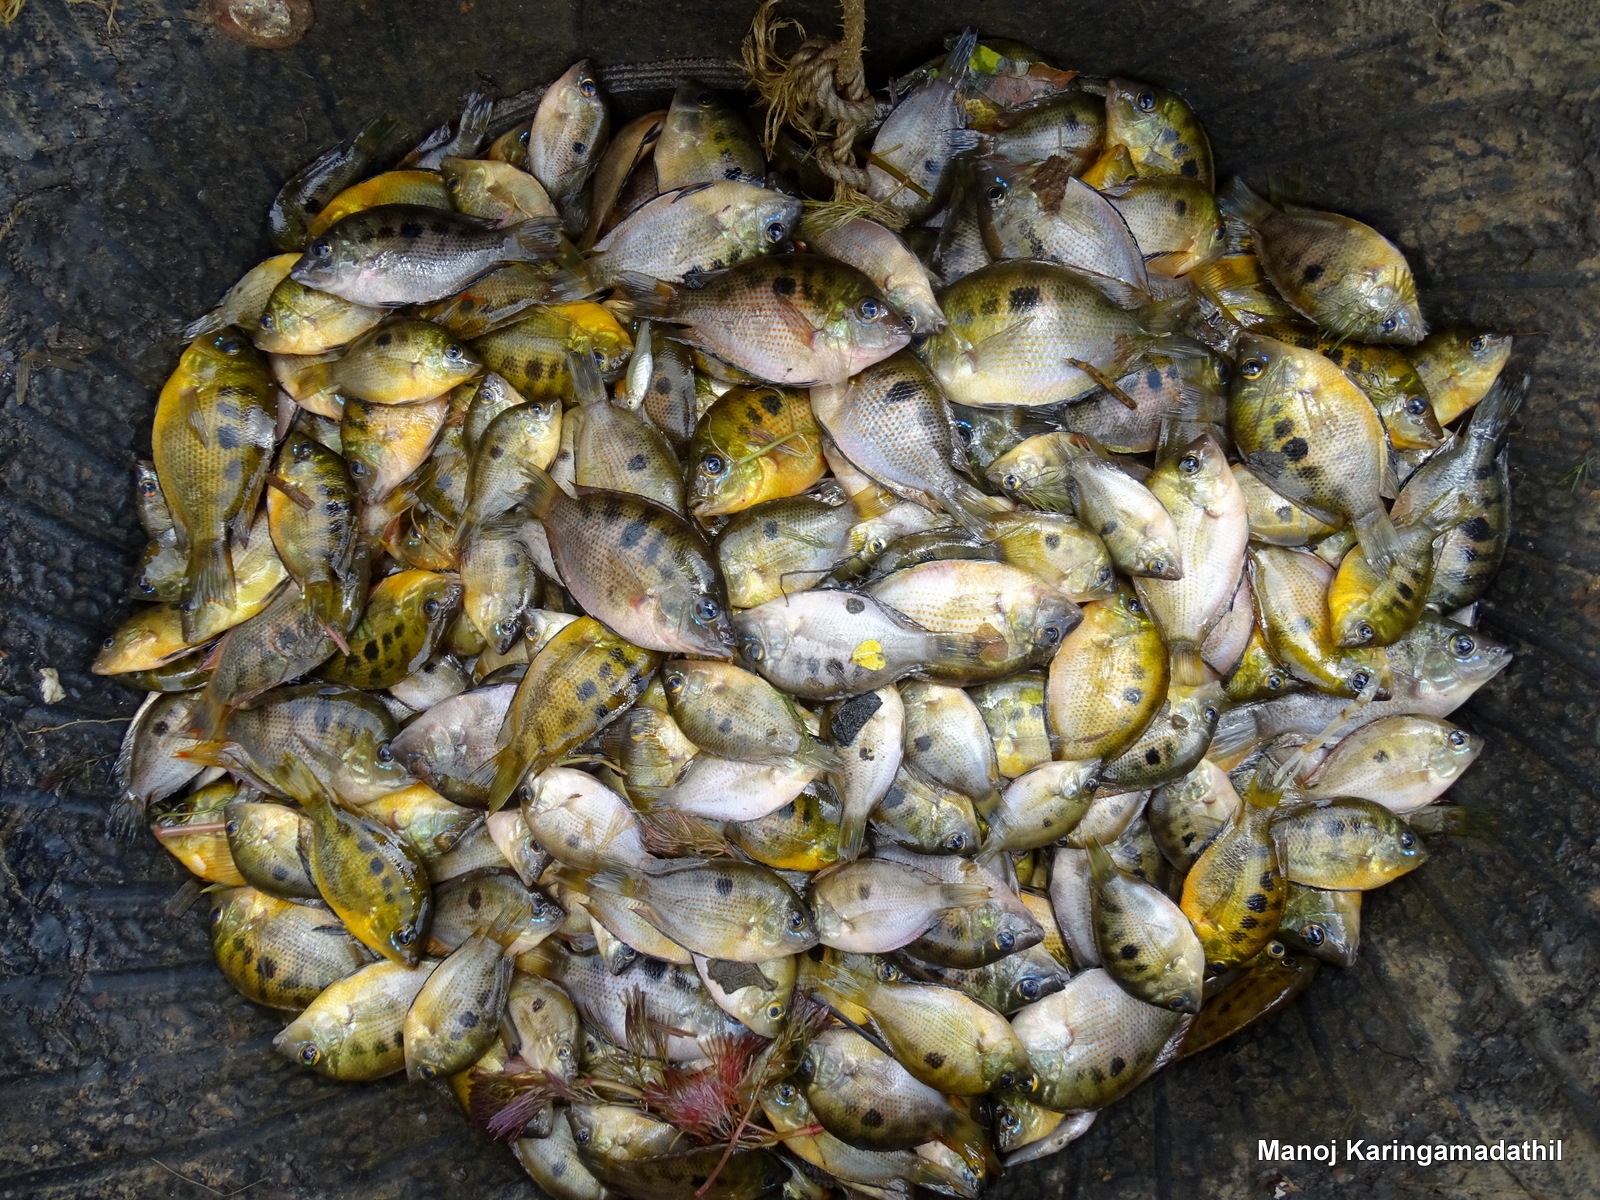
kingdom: Animalia
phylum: Chordata
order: Perciformes
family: Cichlidae
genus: Etroplus
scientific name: Etroplus maculatus
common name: Orange chromide
